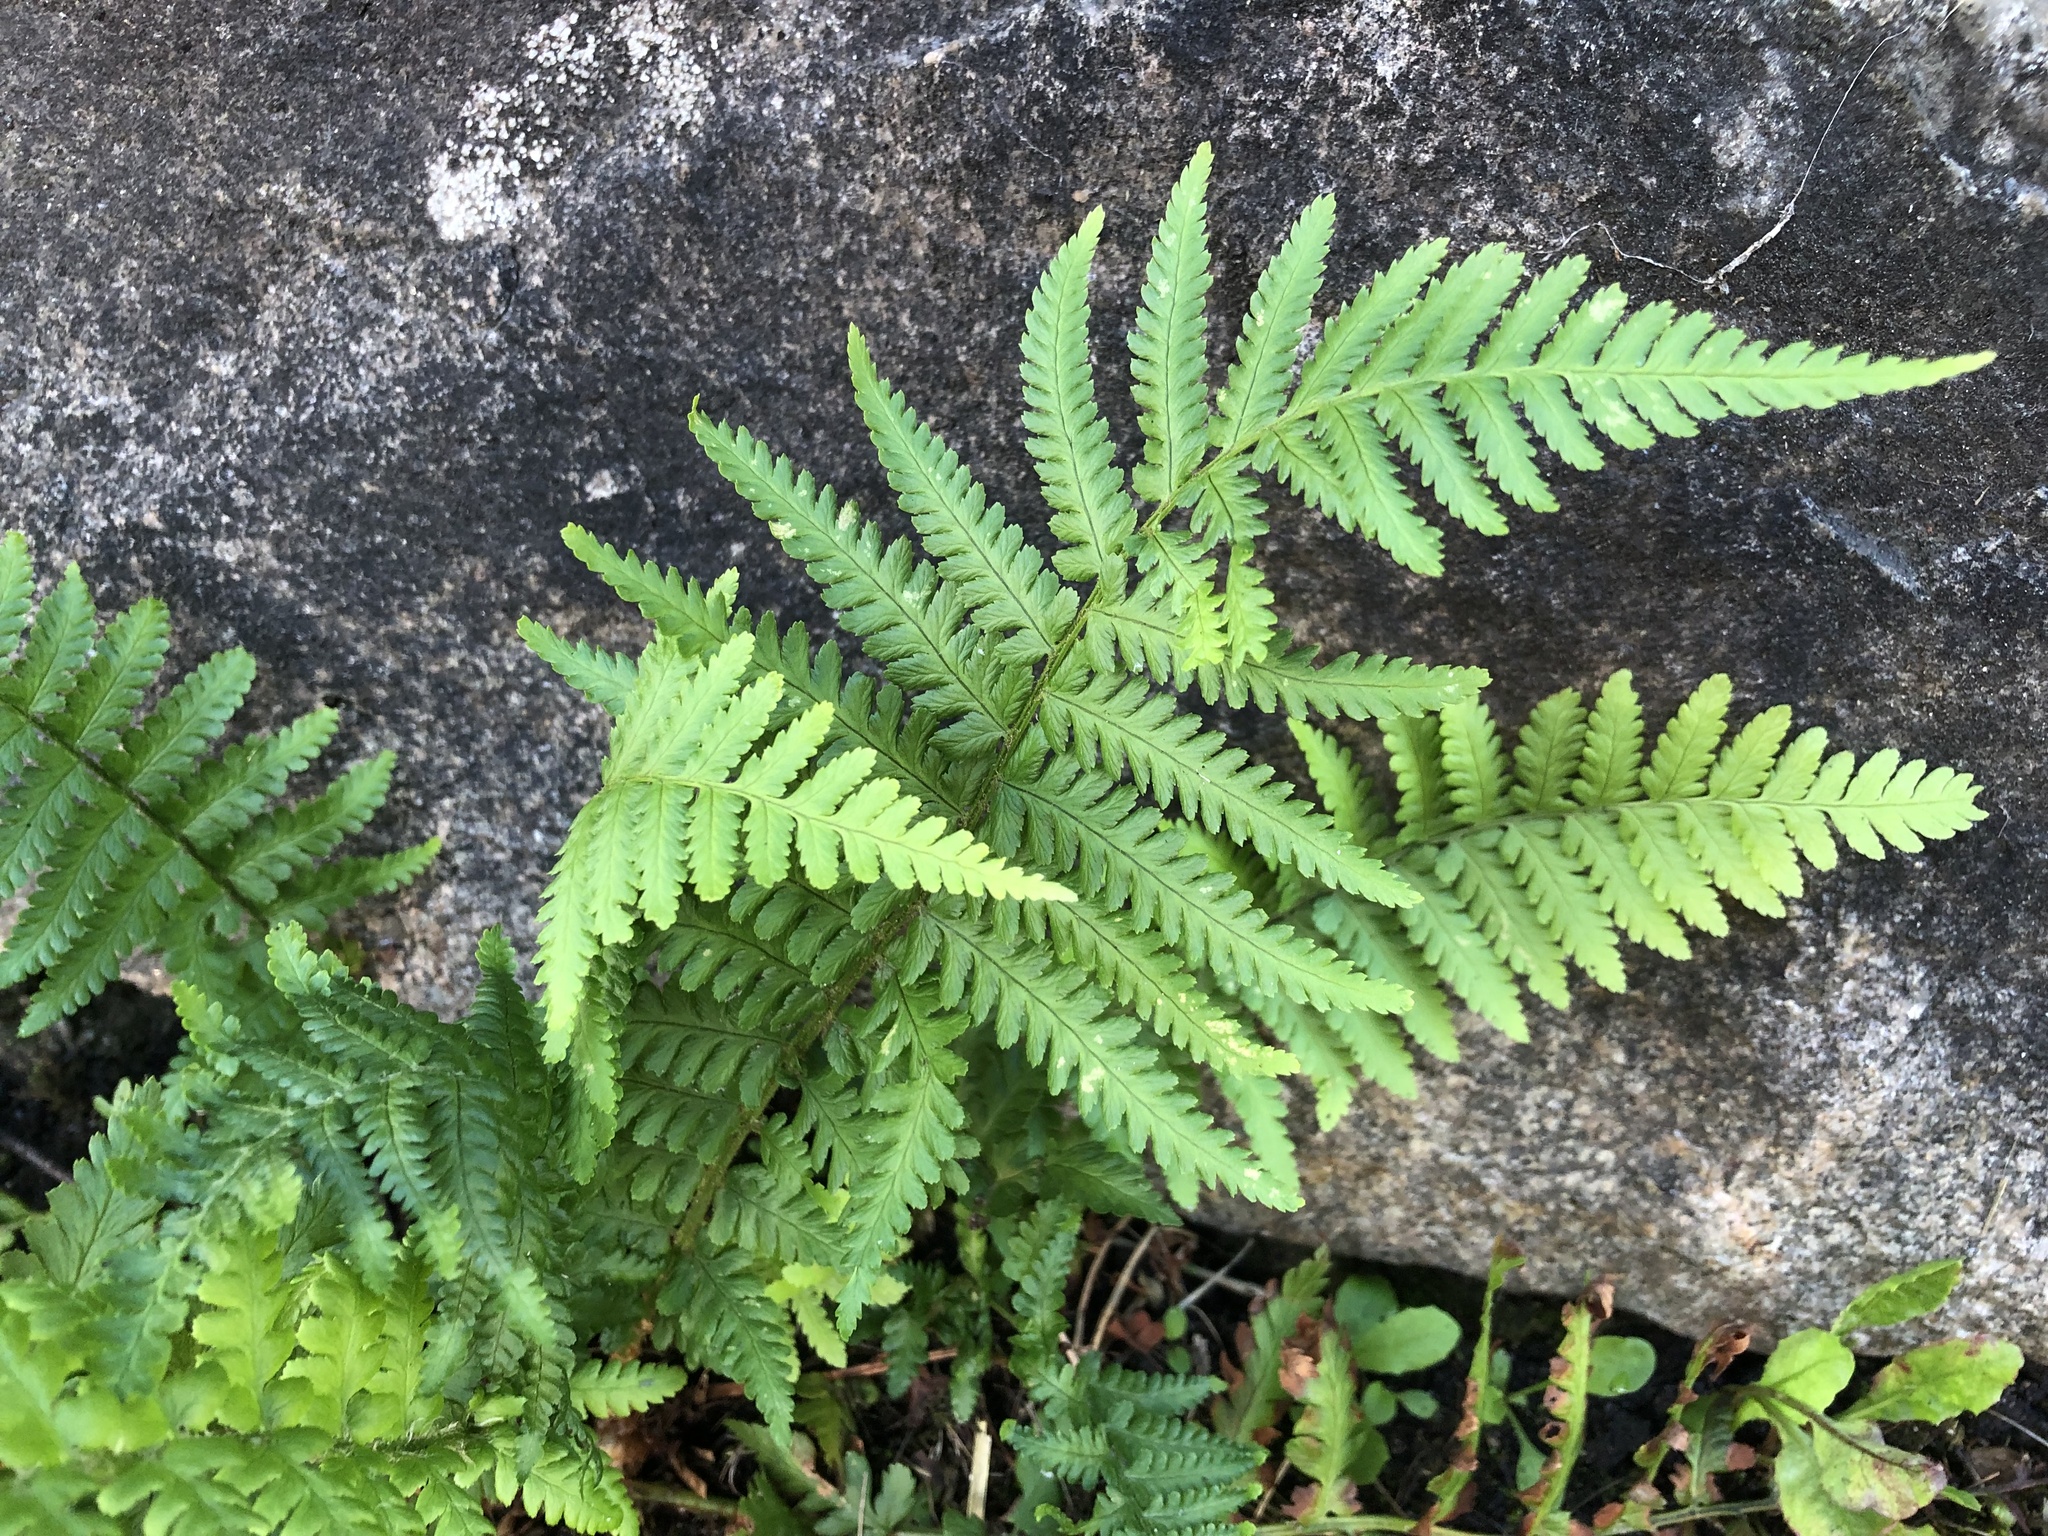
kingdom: Plantae
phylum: Tracheophyta
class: Polypodiopsida
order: Polypodiales
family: Dryopteridaceae
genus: Dryopteris
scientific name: Dryopteris filix-mas
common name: Male fern
